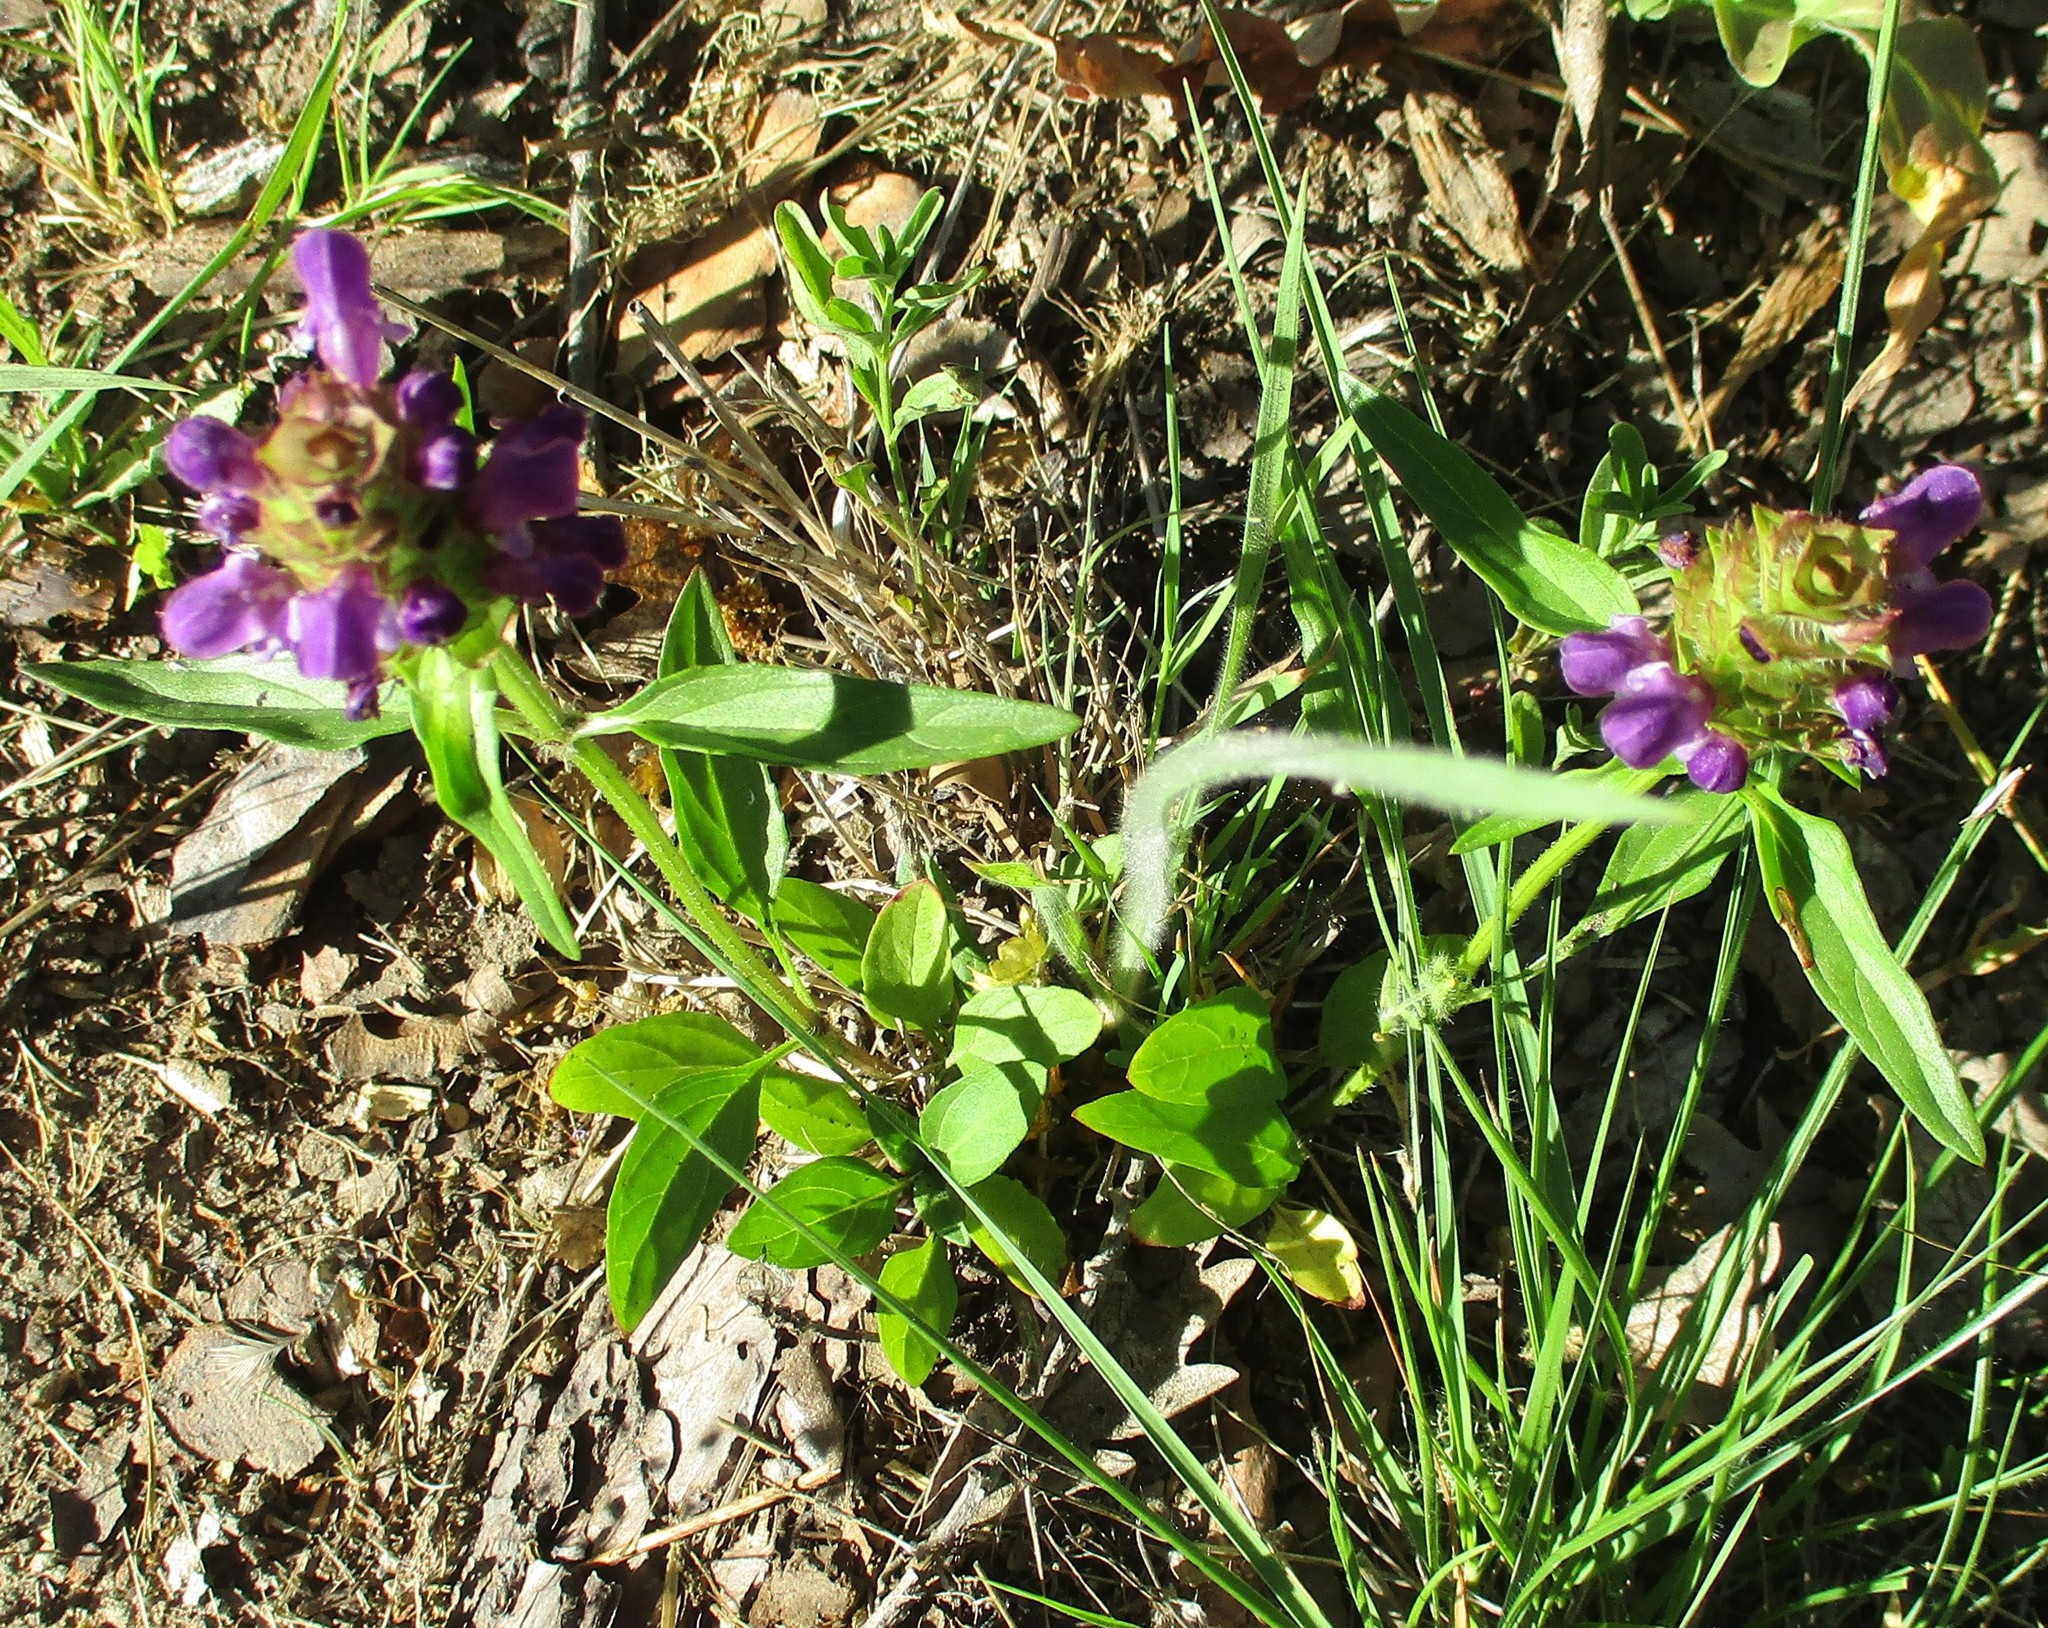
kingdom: Plantae
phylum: Tracheophyta
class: Magnoliopsida
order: Lamiales
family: Lamiaceae
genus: Prunella
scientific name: Prunella vulgaris
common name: Heal-all
